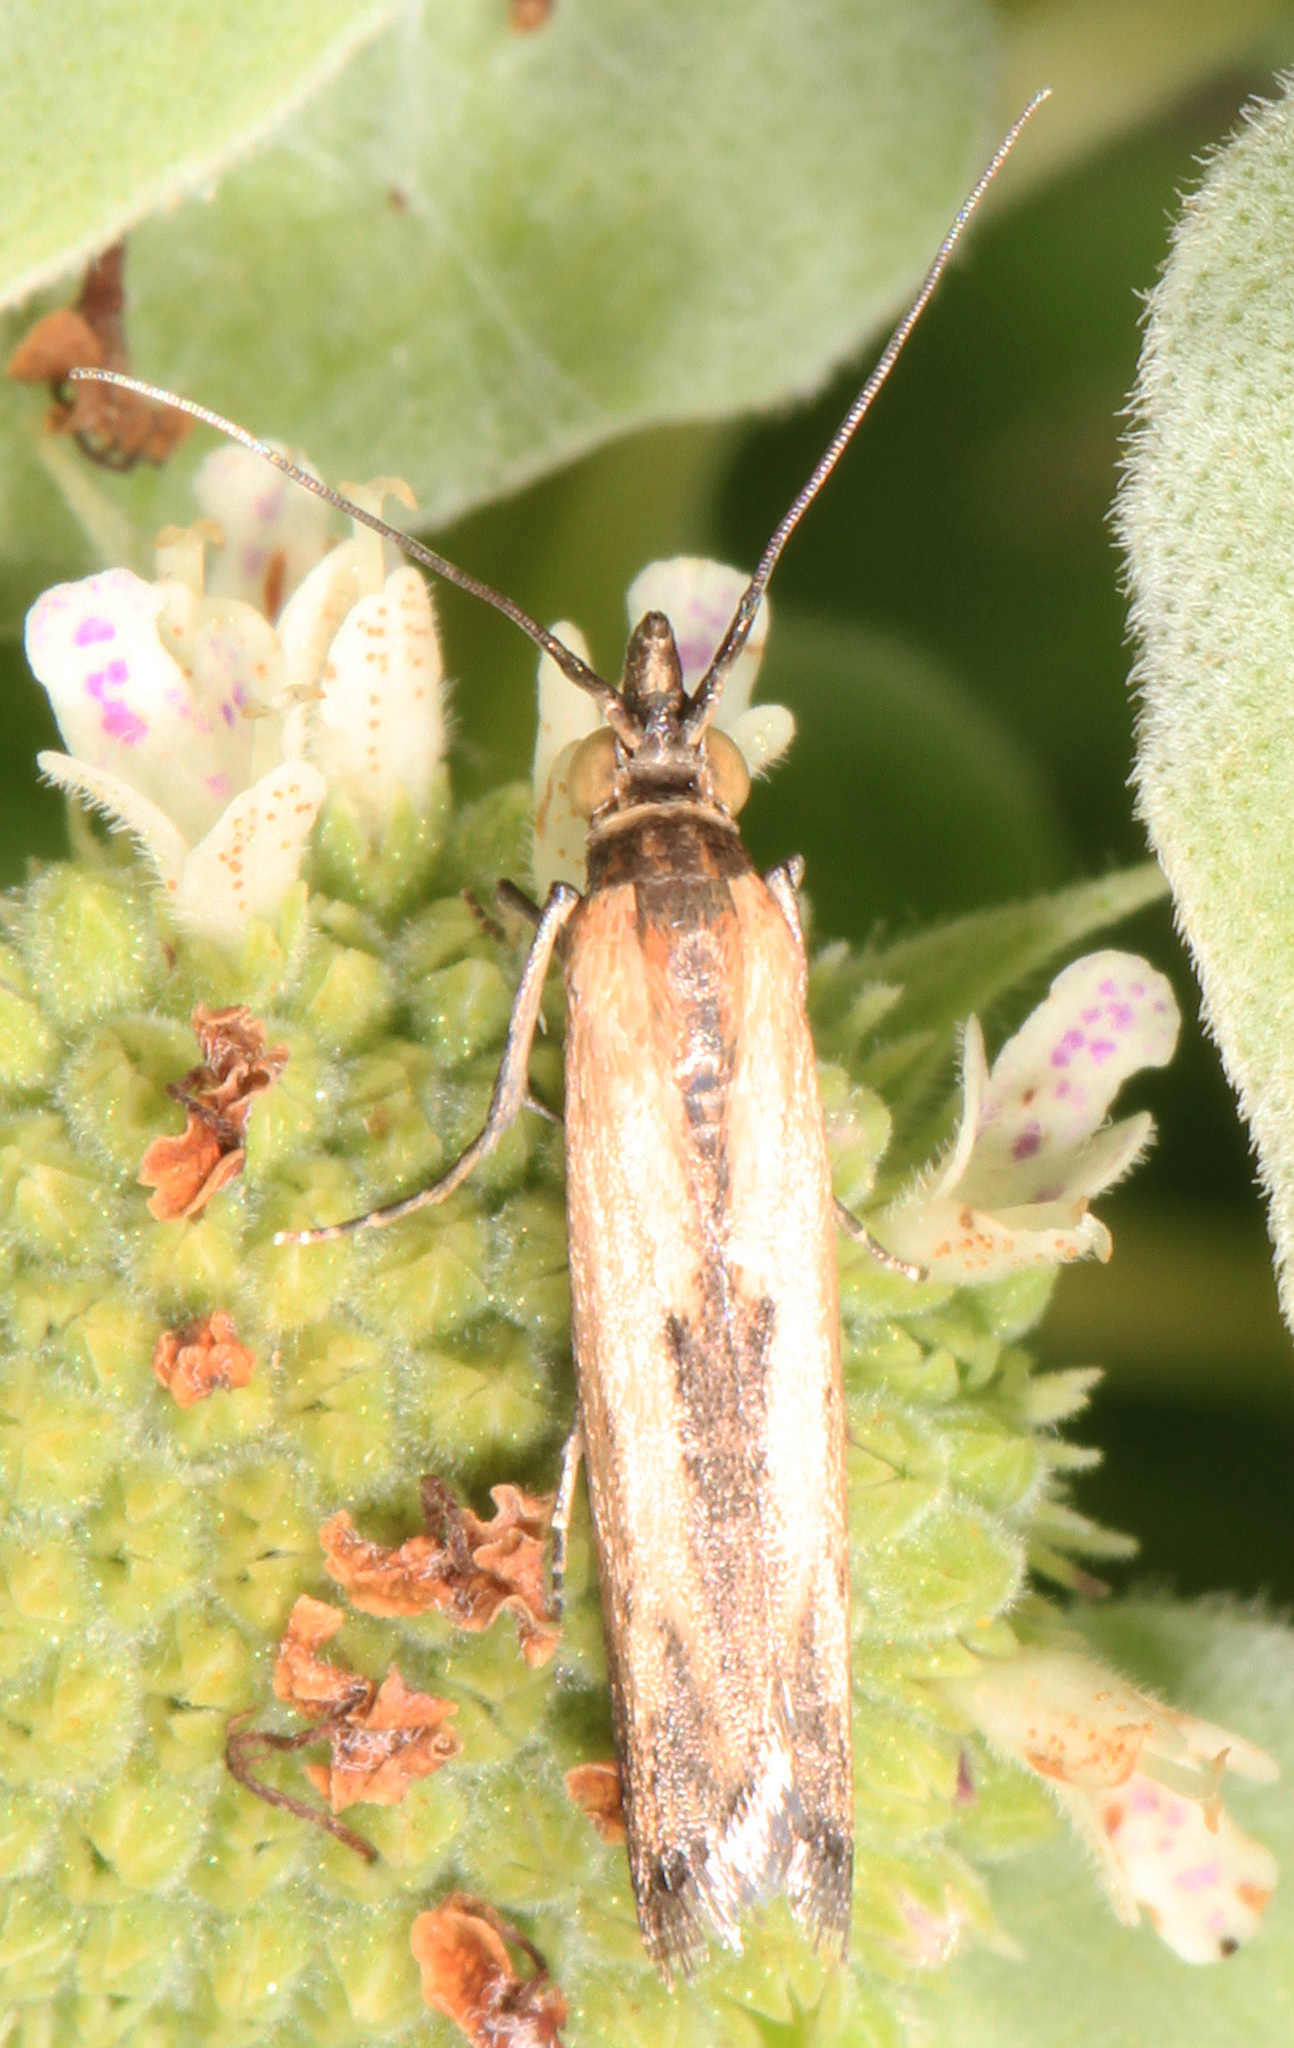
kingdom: Animalia
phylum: Arthropoda
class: Insecta
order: Lepidoptera
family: Pyralidae
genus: Elasmopalpus
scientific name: Elasmopalpus lignosella
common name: Lesser cornstalk borer
